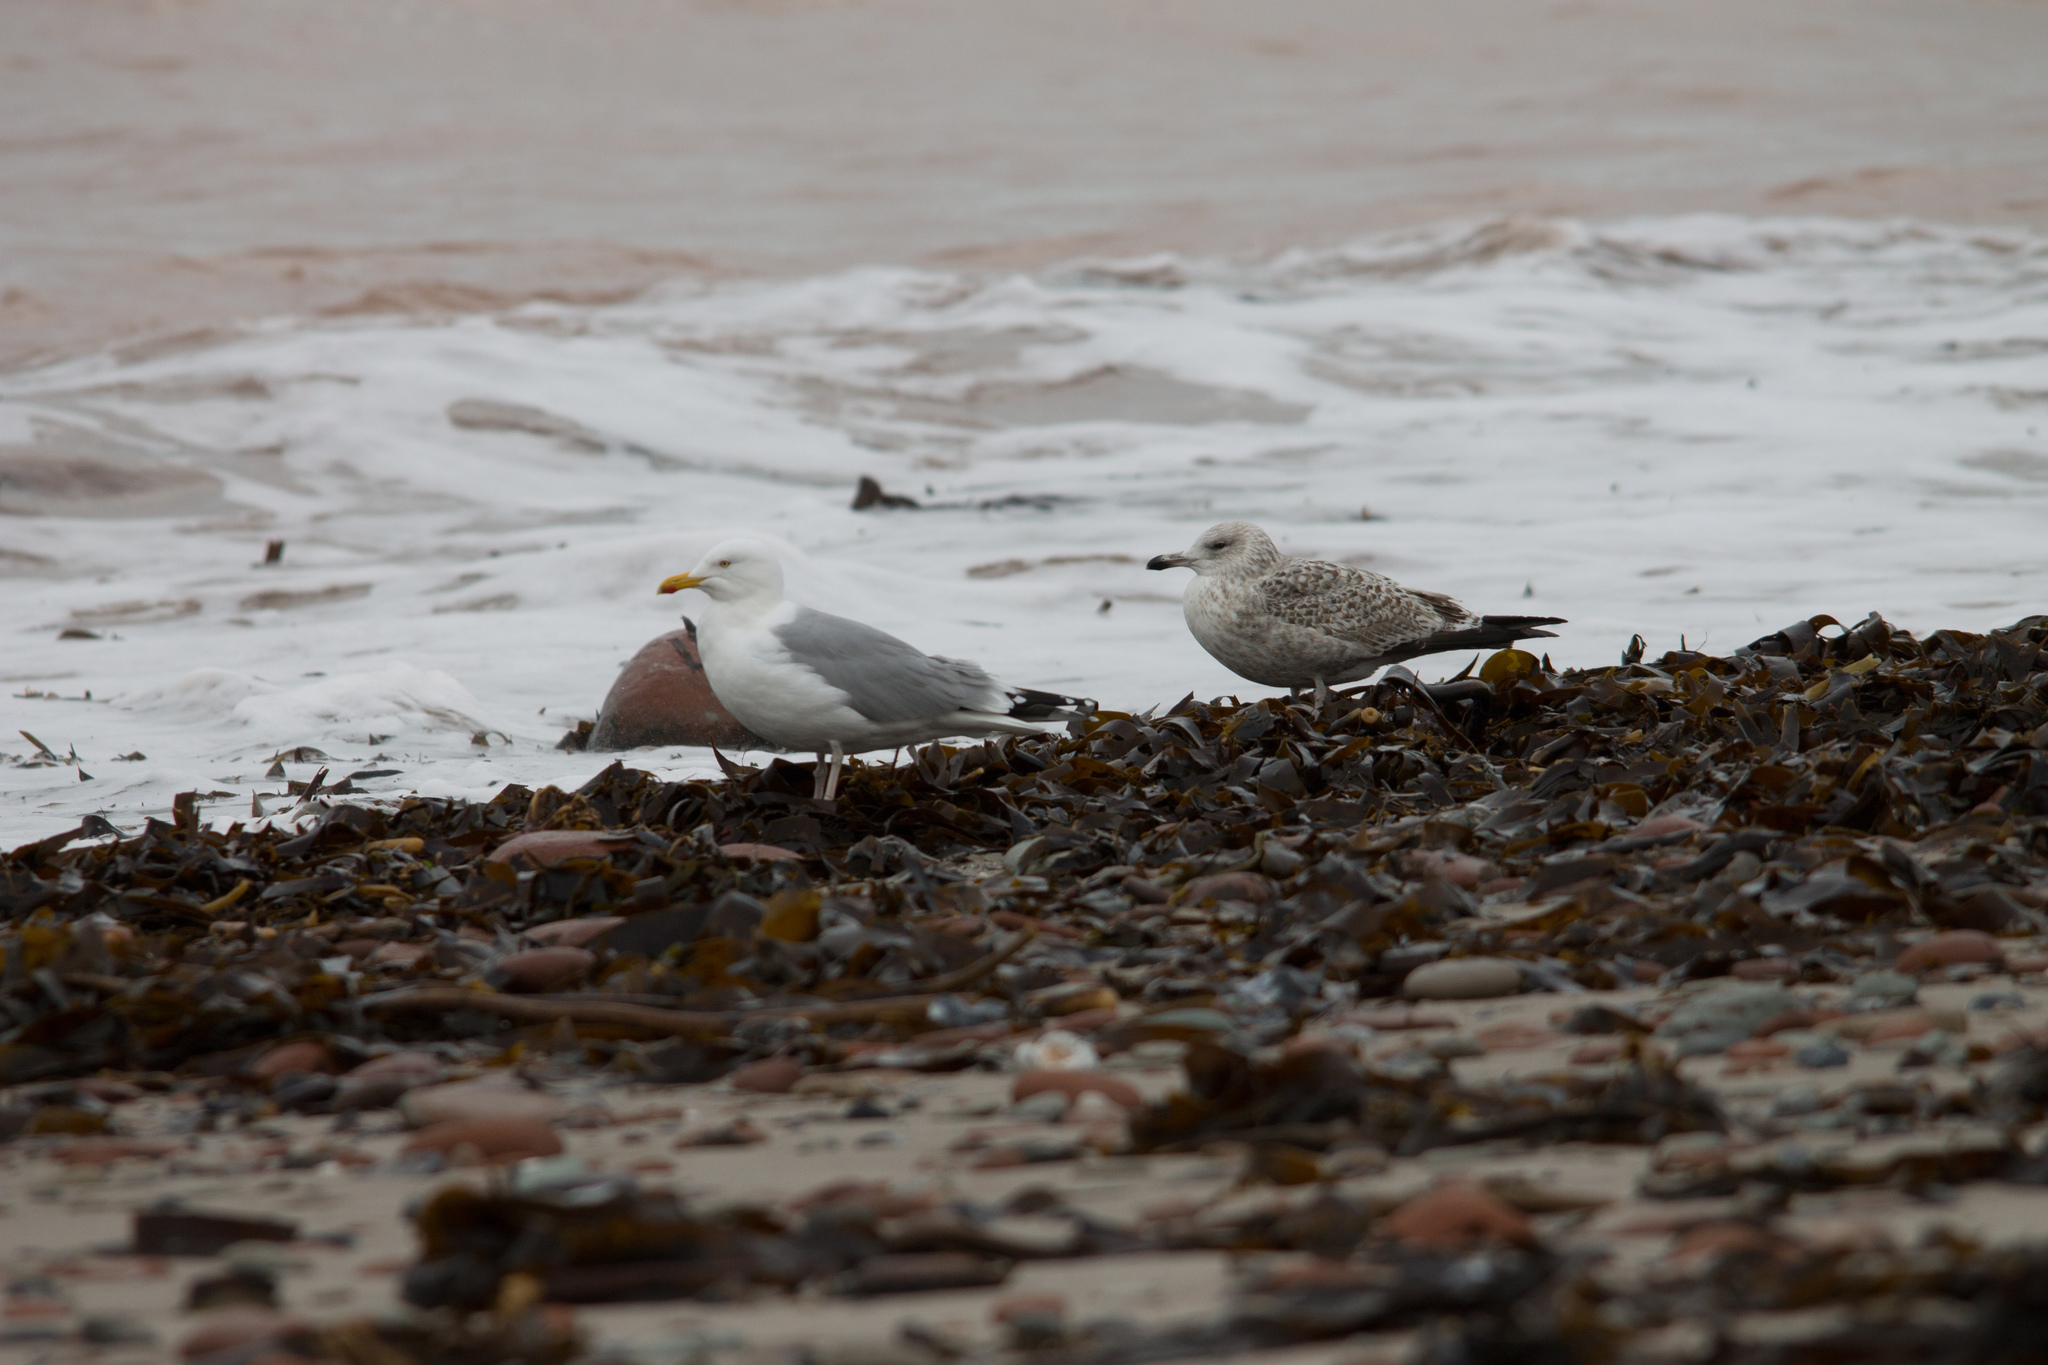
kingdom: Animalia
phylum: Chordata
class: Aves
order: Charadriiformes
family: Laridae
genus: Larus
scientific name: Larus argentatus
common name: Herring gull
